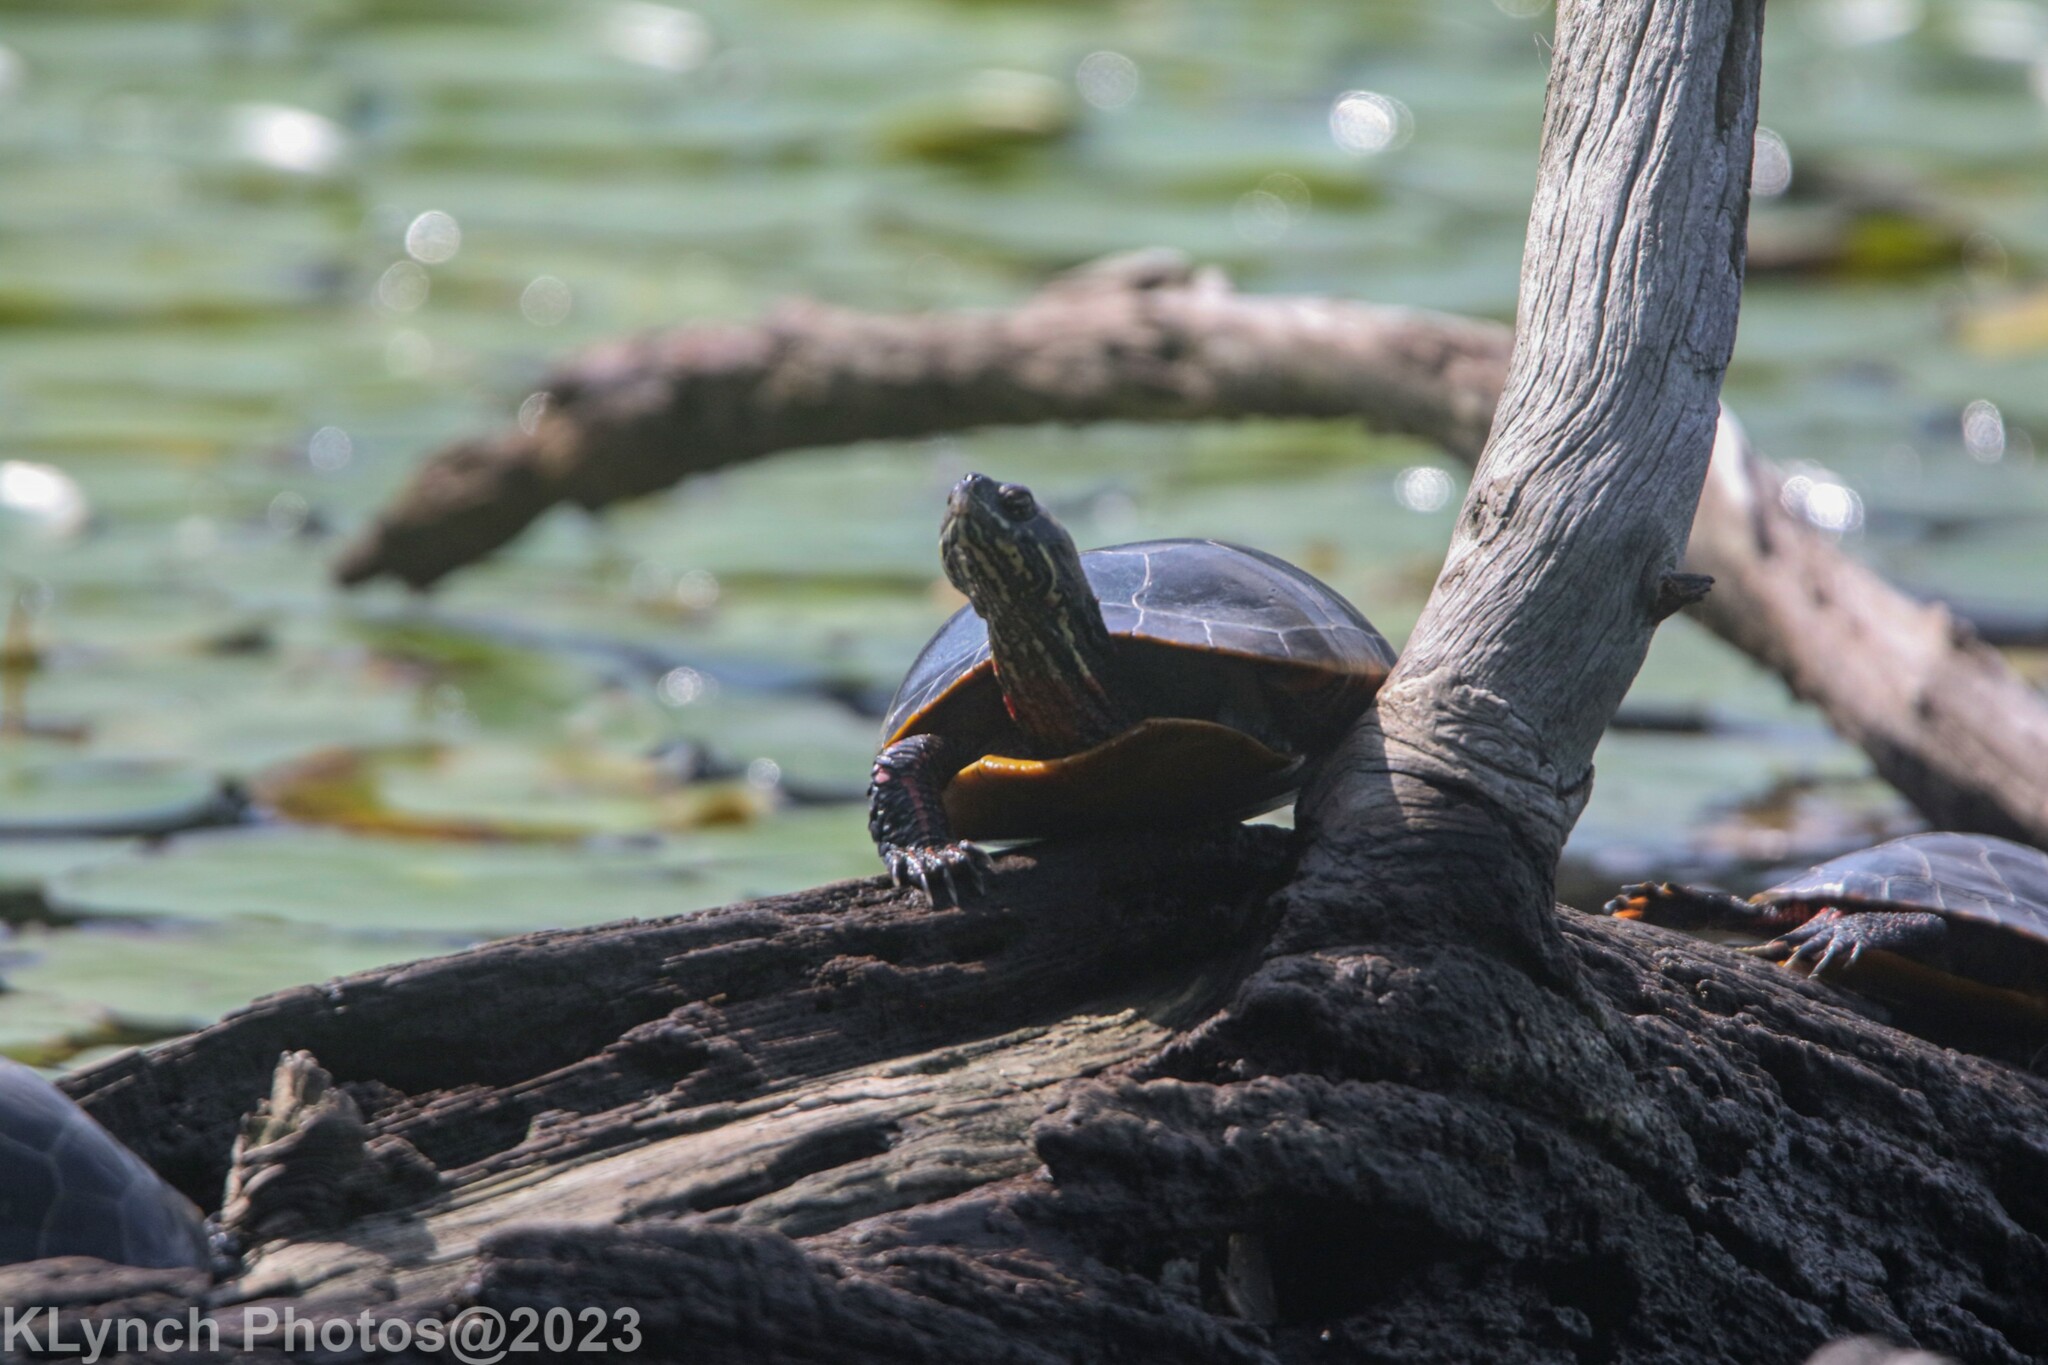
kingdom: Animalia
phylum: Chordata
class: Testudines
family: Emydidae
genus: Chrysemys
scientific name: Chrysemys picta
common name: Painted turtle
